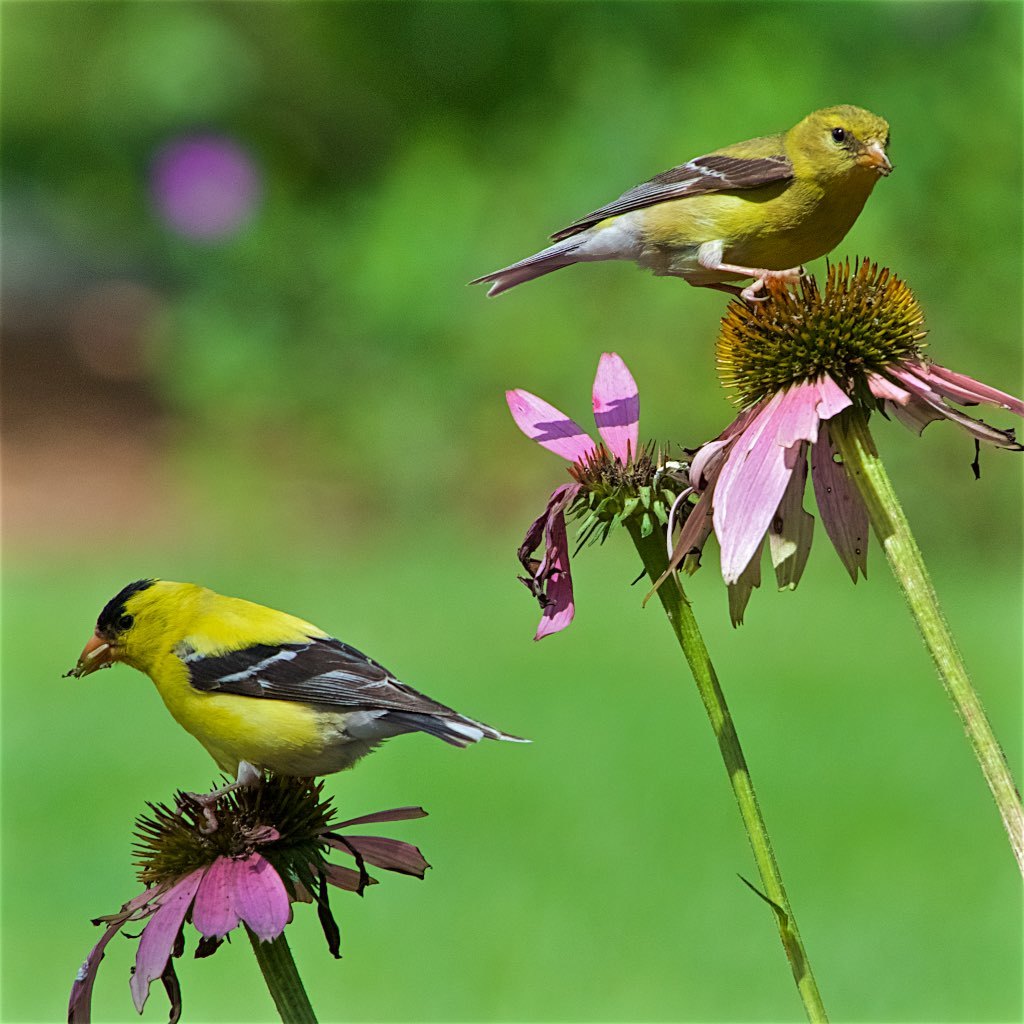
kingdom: Animalia
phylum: Chordata
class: Aves
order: Passeriformes
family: Fringillidae
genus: Spinus
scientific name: Spinus tristis
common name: American goldfinch
